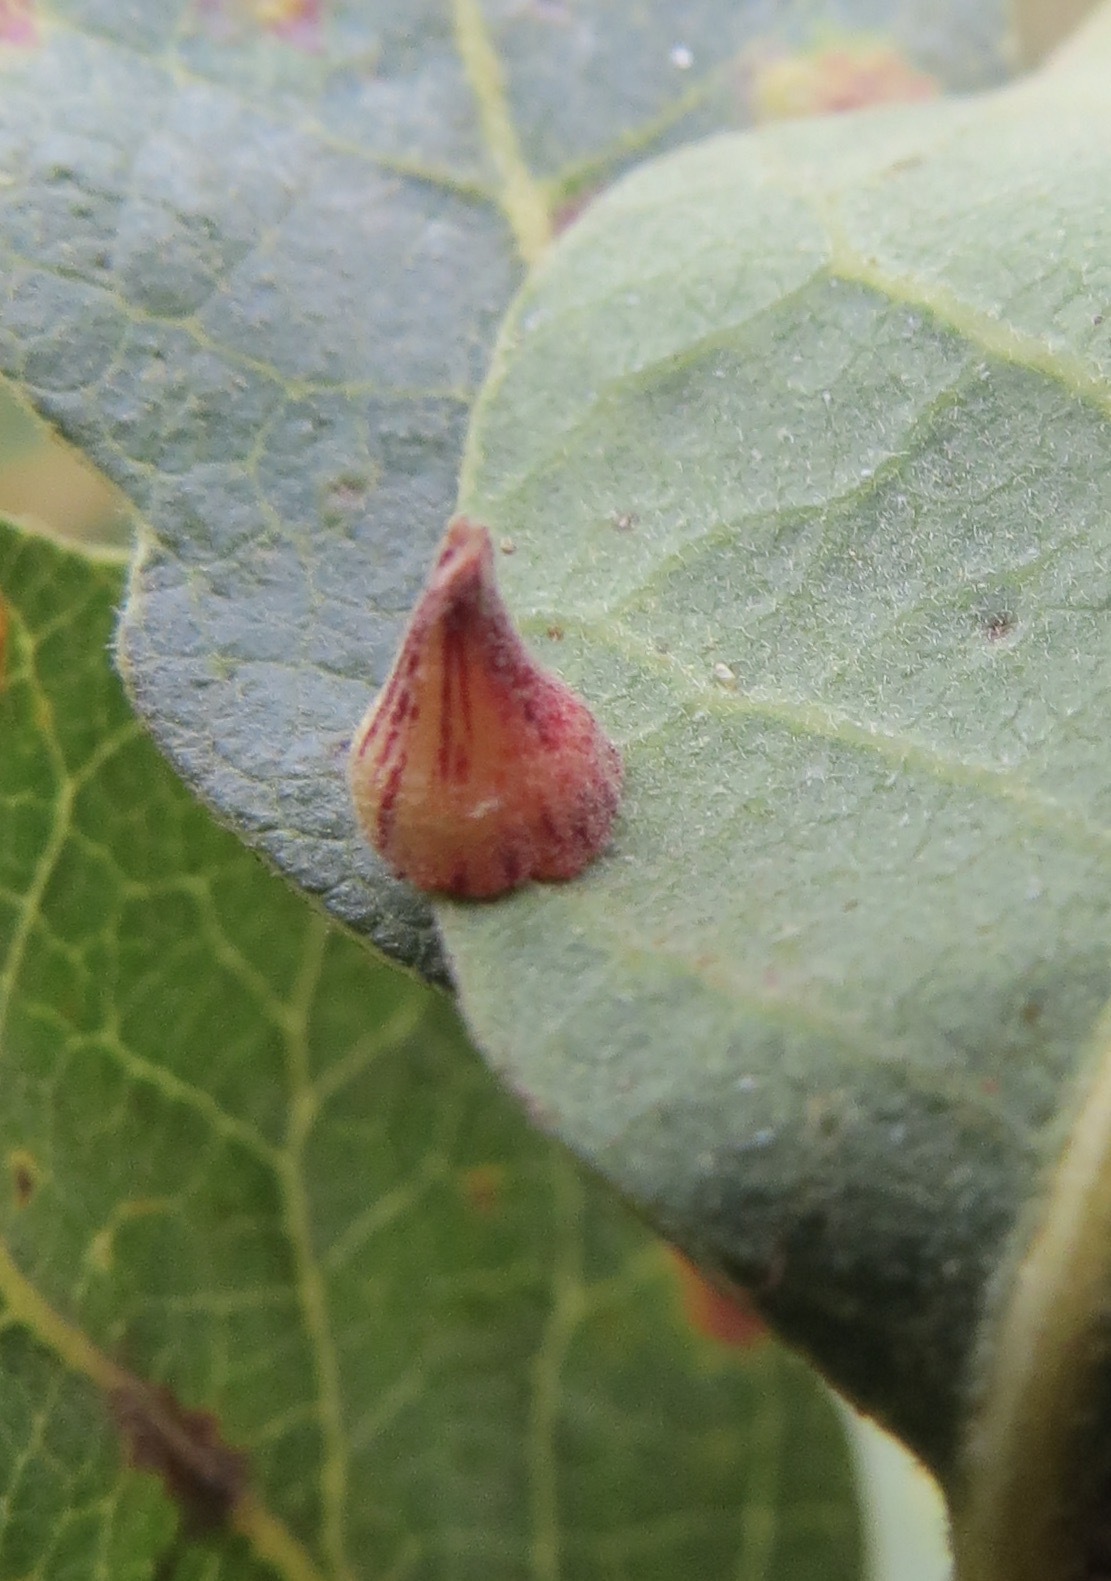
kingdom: Animalia
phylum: Arthropoda
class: Insecta
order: Hymenoptera
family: Cynipidae
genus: Andricus
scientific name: Andricus
